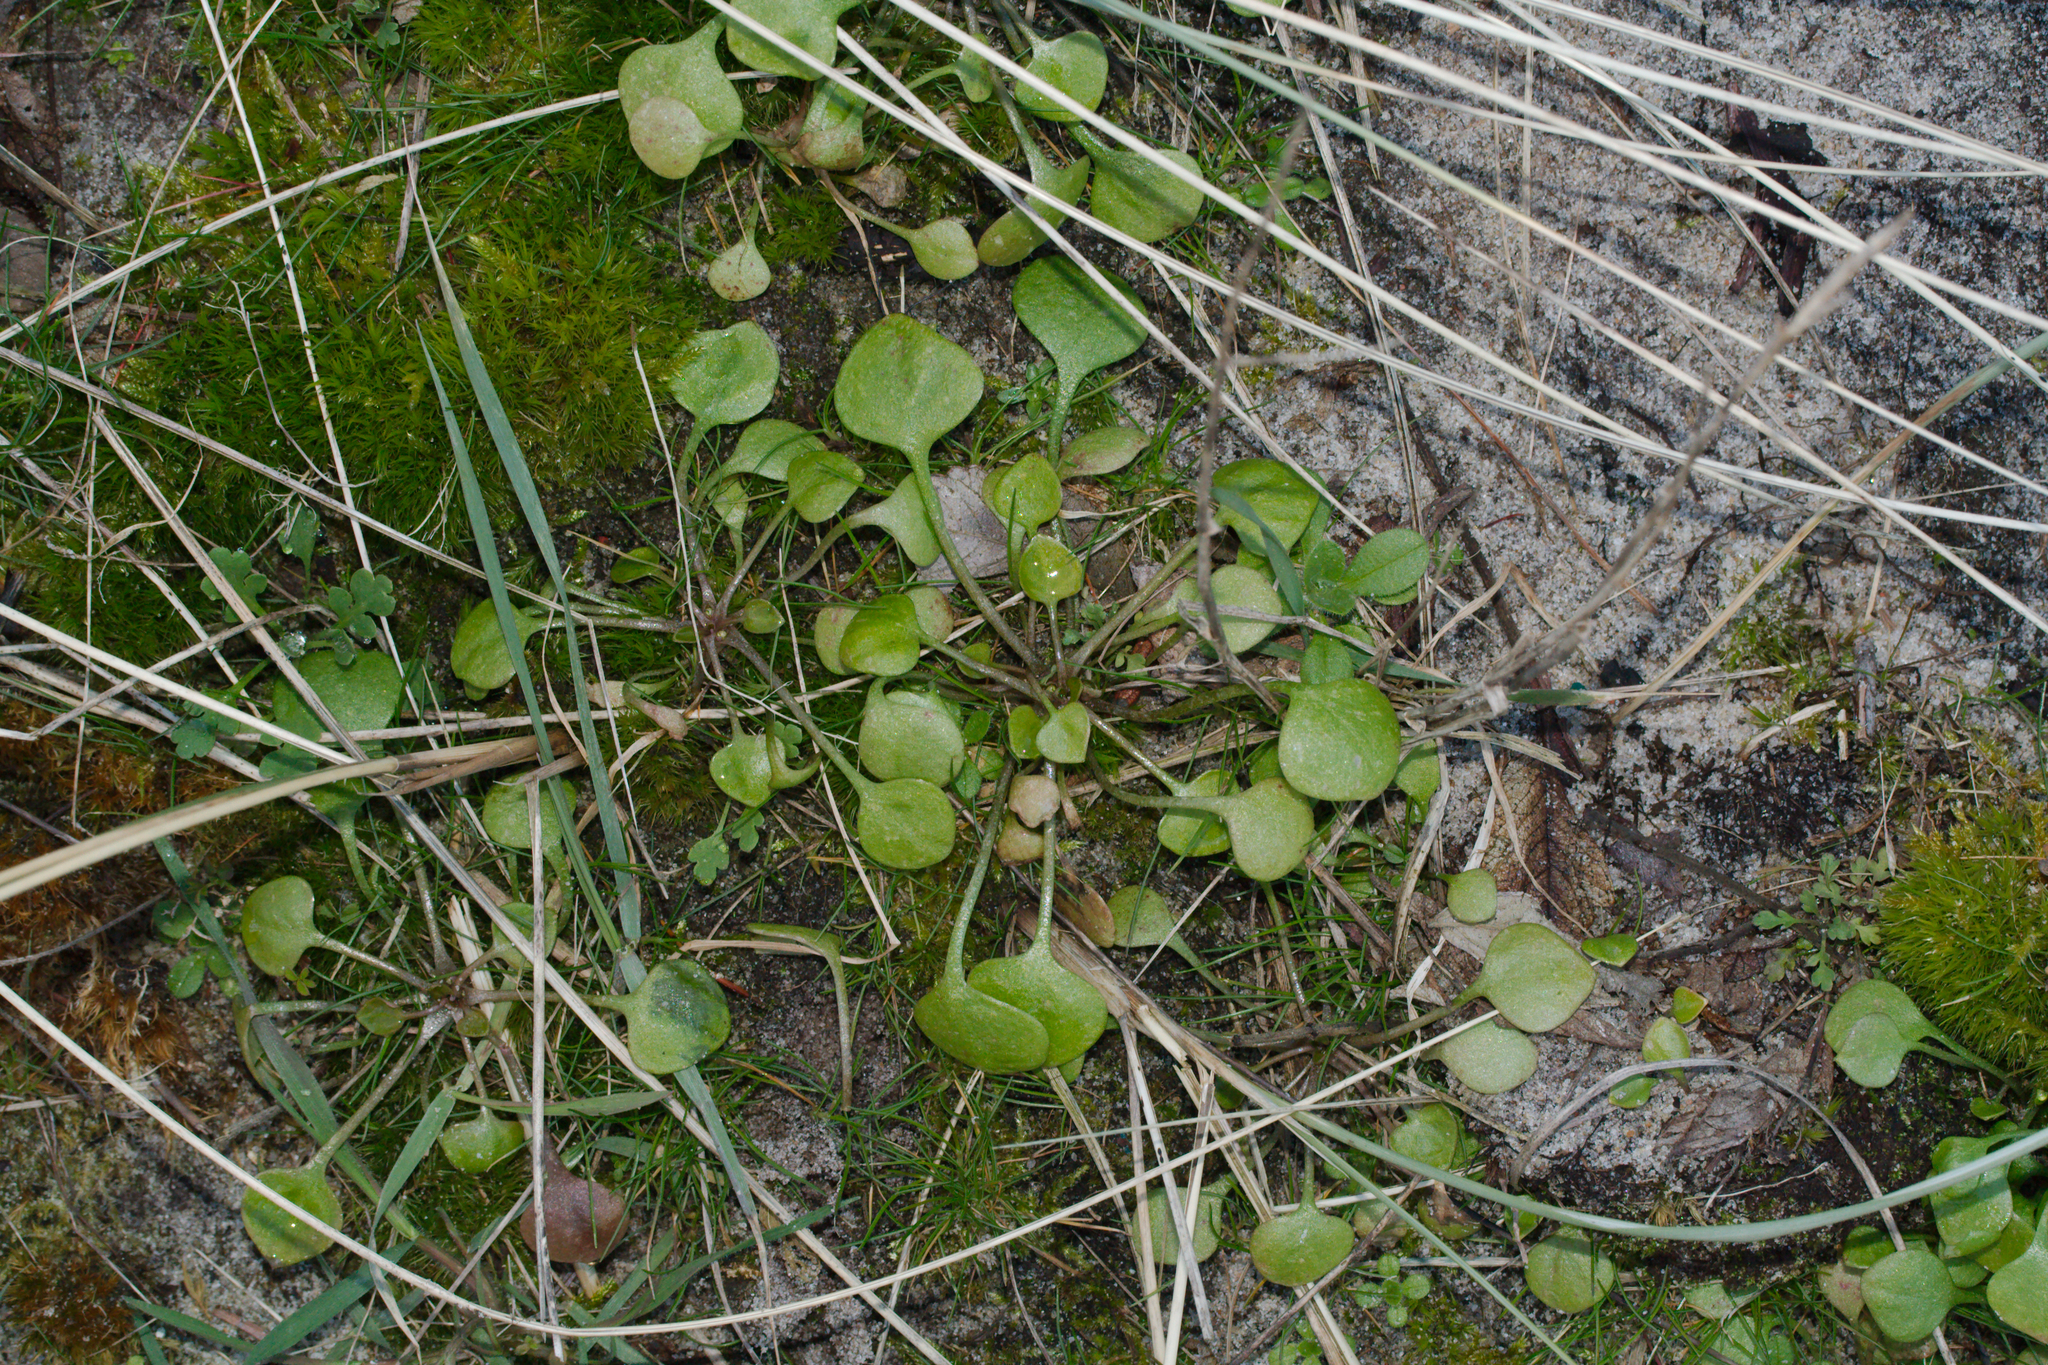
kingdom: Plantae
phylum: Tracheophyta
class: Magnoliopsida
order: Caryophyllales
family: Montiaceae
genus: Claytonia
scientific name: Claytonia perfoliata
